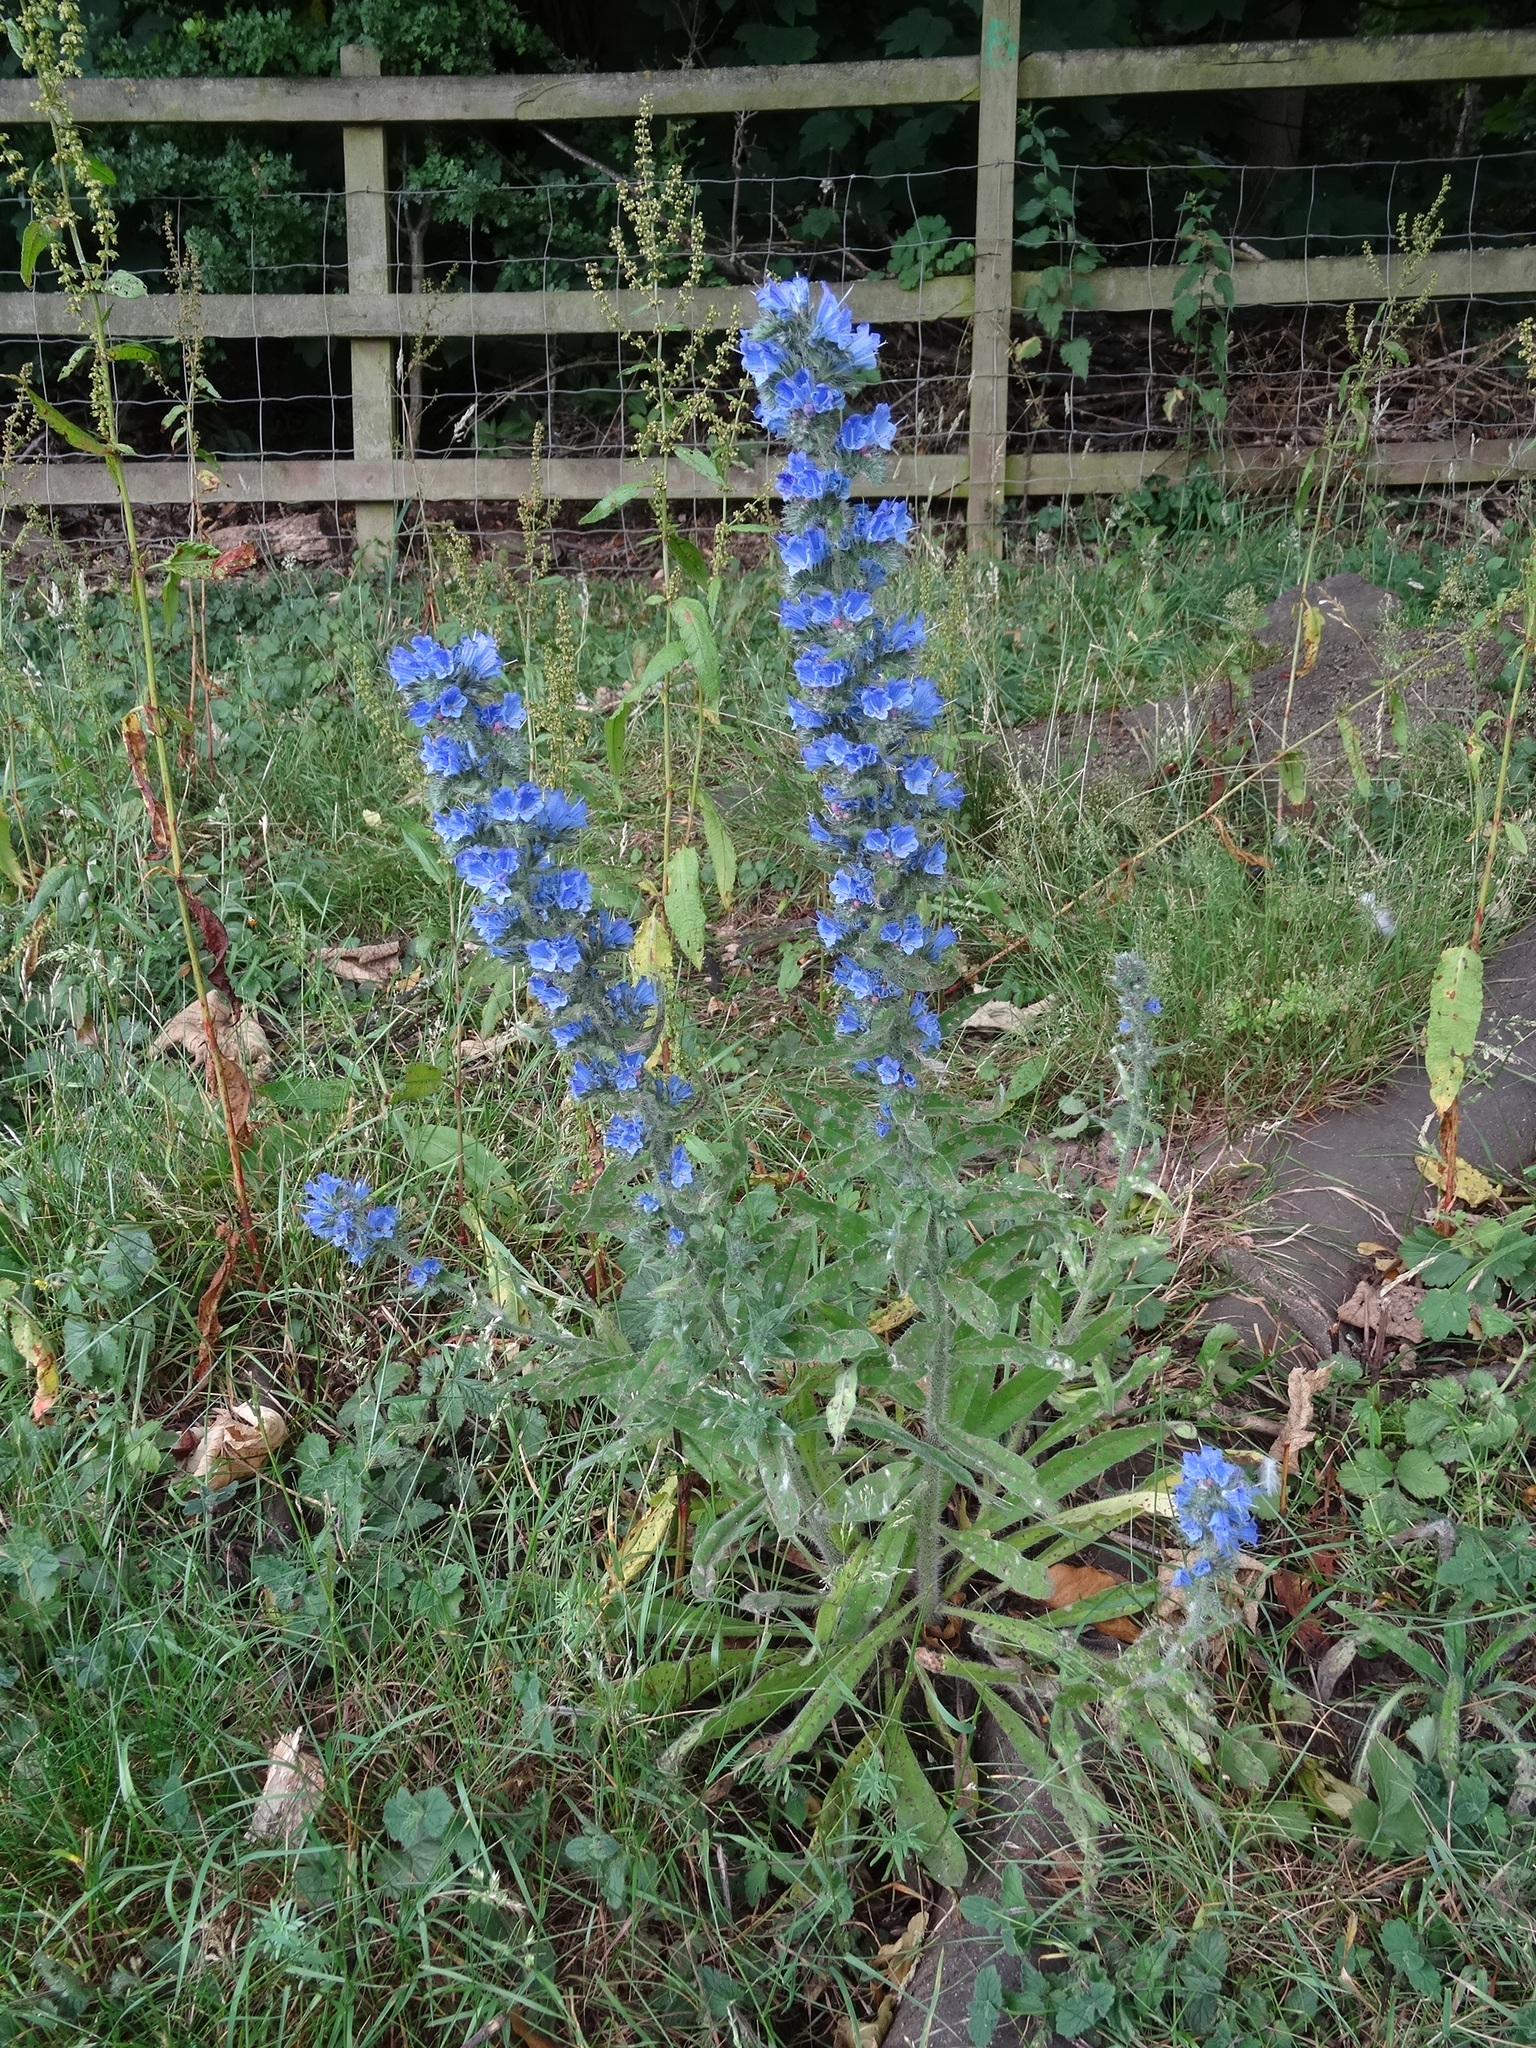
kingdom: Plantae
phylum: Tracheophyta
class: Magnoliopsida
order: Boraginales
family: Boraginaceae
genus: Echium
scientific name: Echium vulgare
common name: Common viper's bugloss
